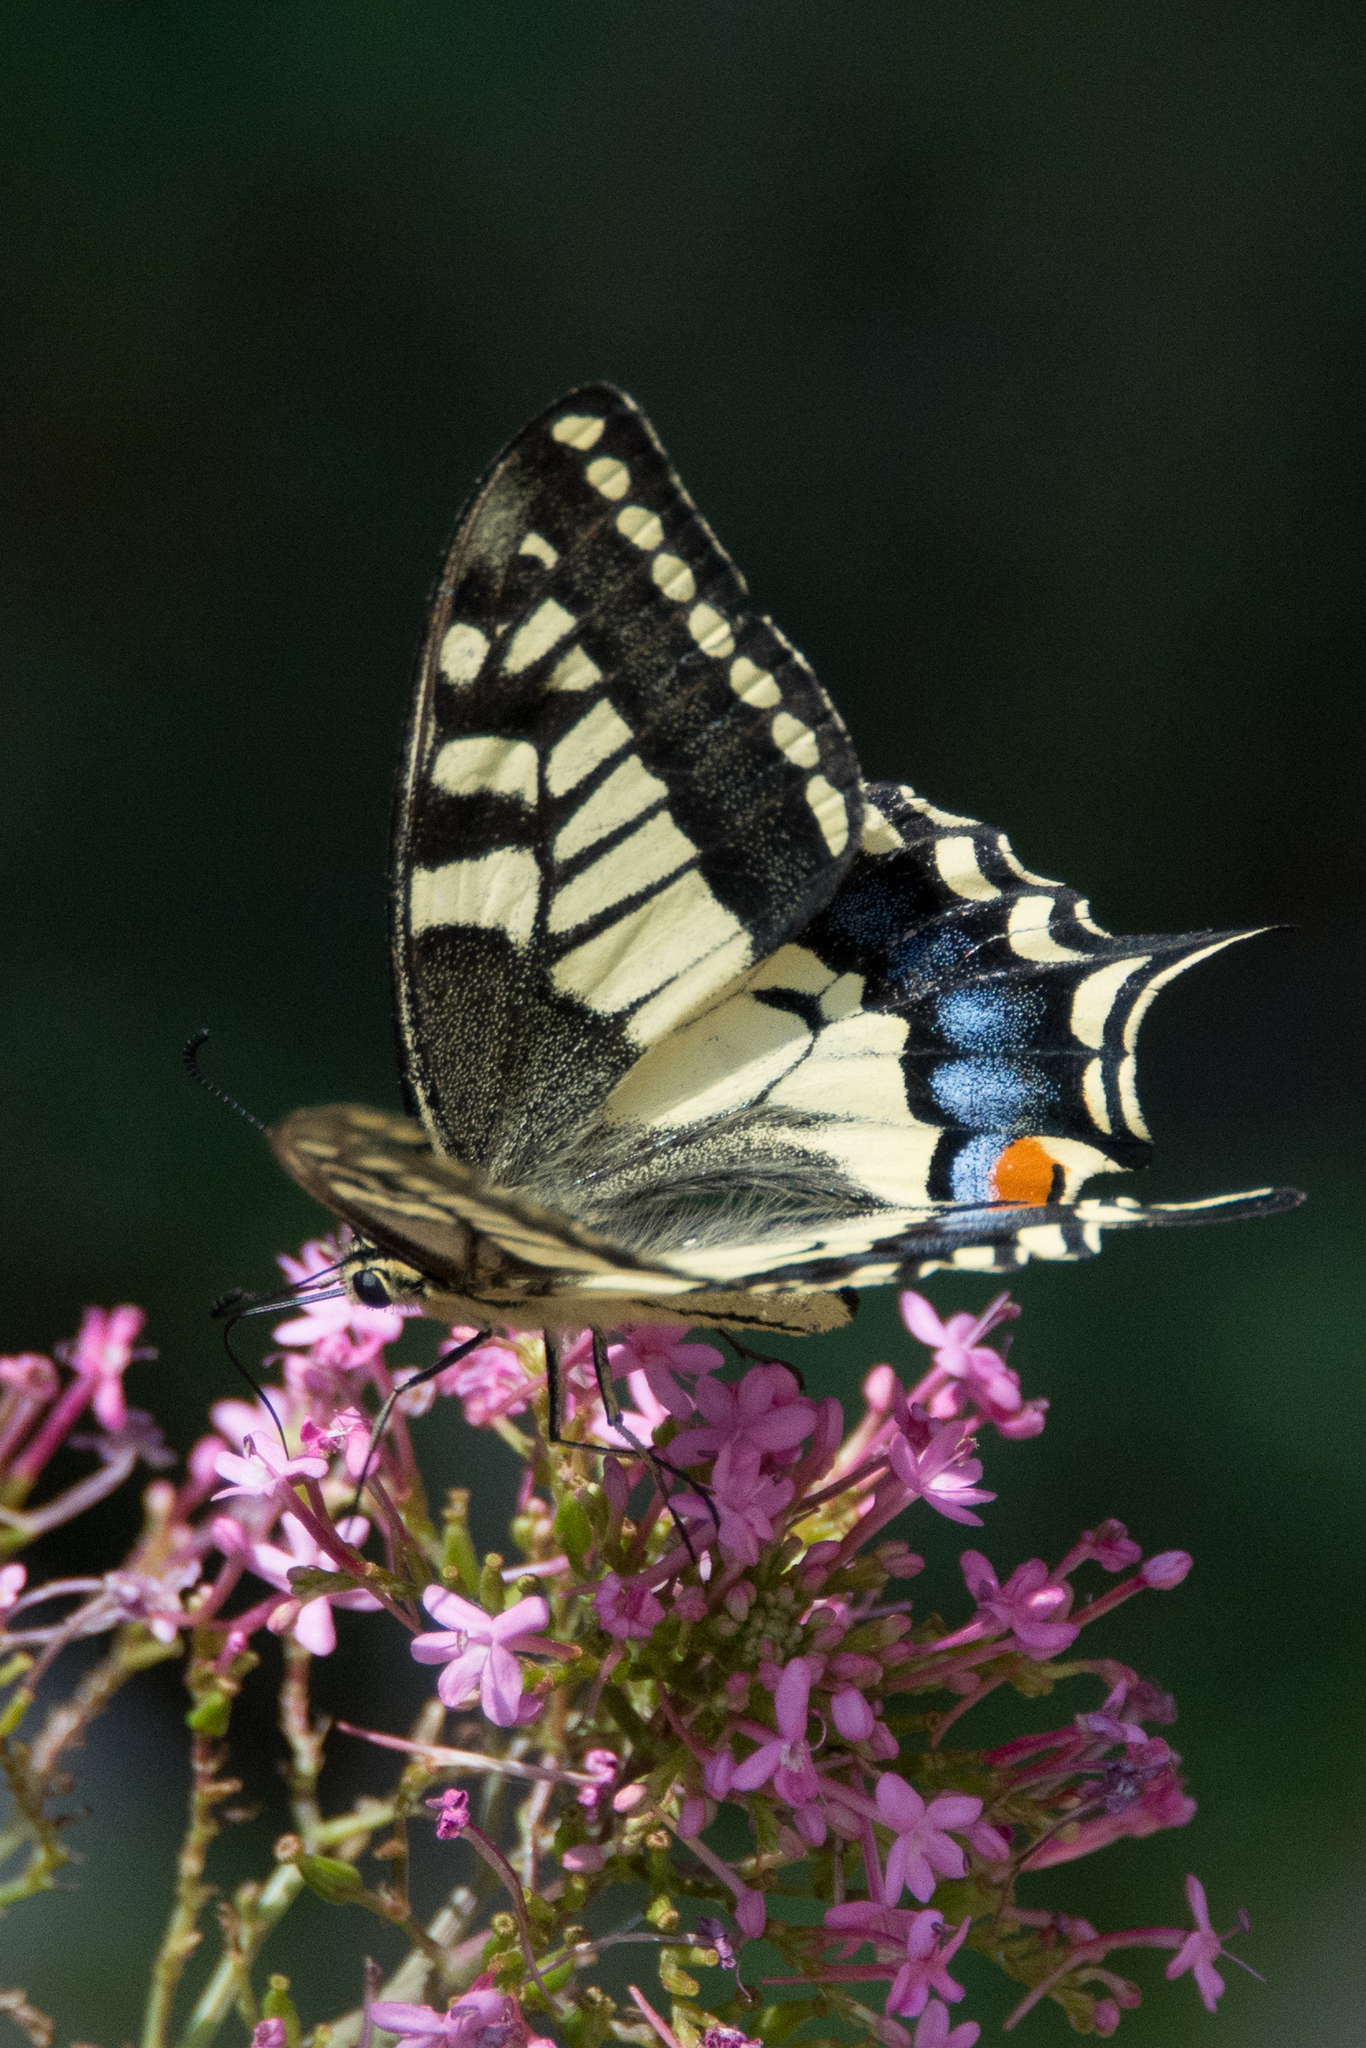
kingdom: Animalia
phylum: Arthropoda
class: Insecta
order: Lepidoptera
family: Papilionidae
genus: Papilio
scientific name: Papilio machaon
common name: Swallowtail
